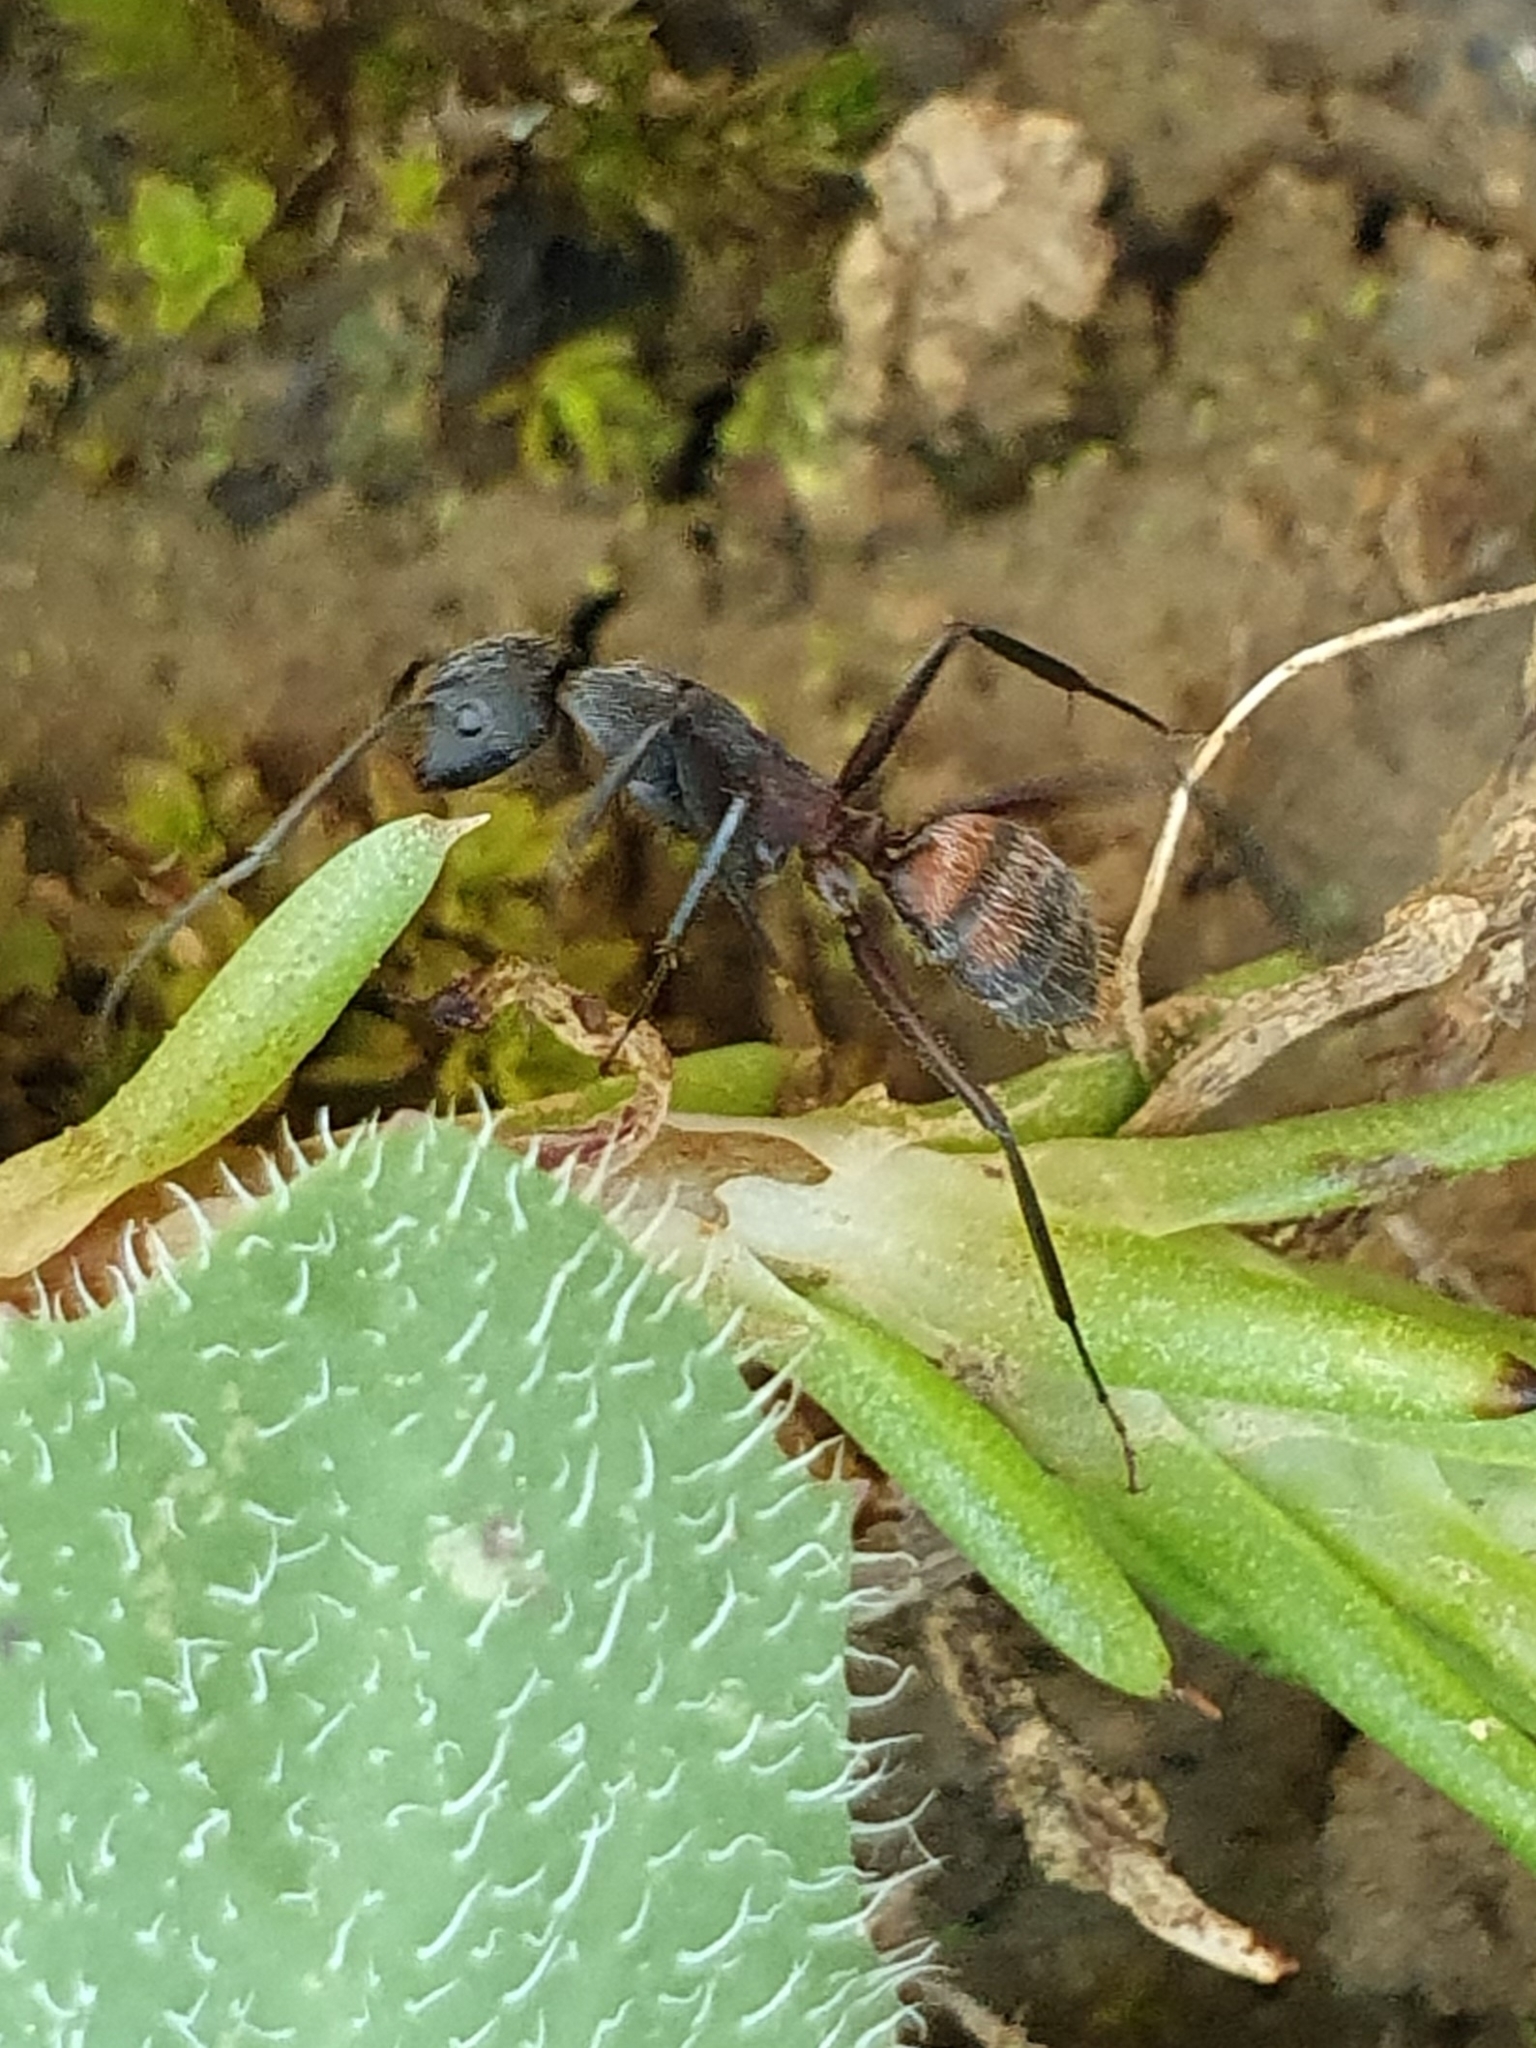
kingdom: Animalia
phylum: Arthropoda
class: Insecta
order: Hymenoptera
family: Formicidae
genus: Camponotus
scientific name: Camponotus cruentatus
